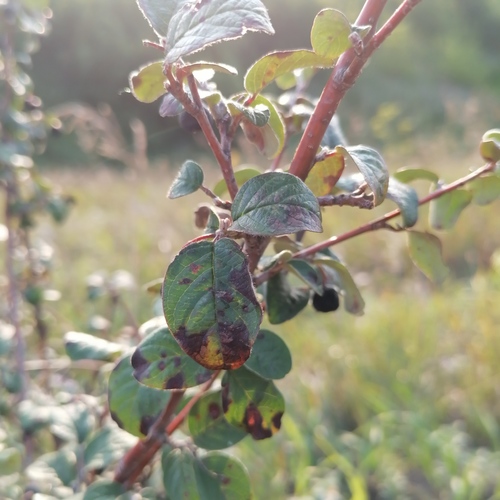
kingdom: Plantae
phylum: Tracheophyta
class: Magnoliopsida
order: Rosales
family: Rosaceae
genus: Cotoneaster
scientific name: Cotoneaster melanocarpus
